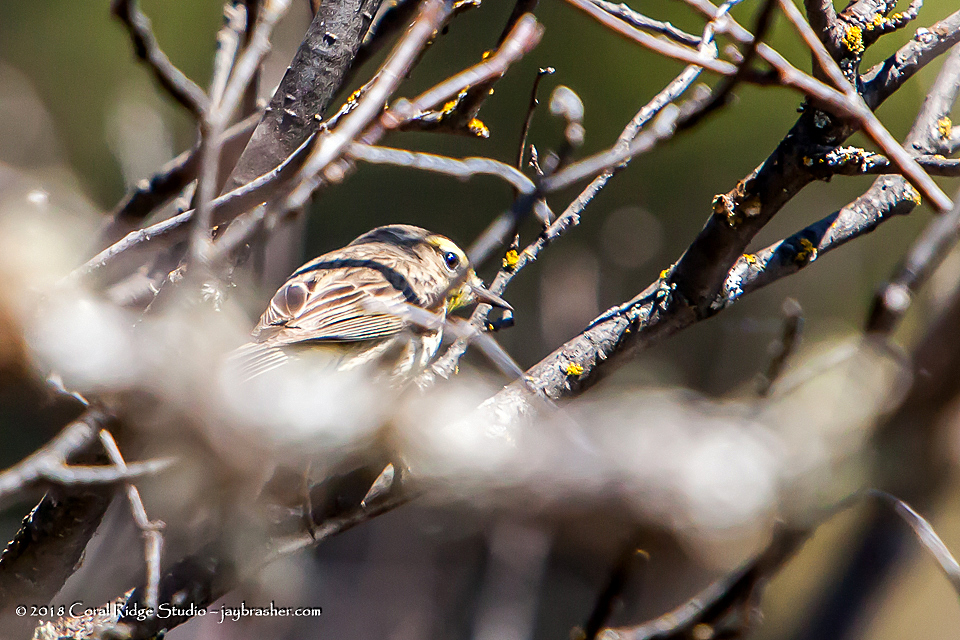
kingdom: Animalia
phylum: Chordata
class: Aves
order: Passeriformes
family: Parulidae
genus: Setophaga
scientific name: Setophaga palmarum
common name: Palm warbler
